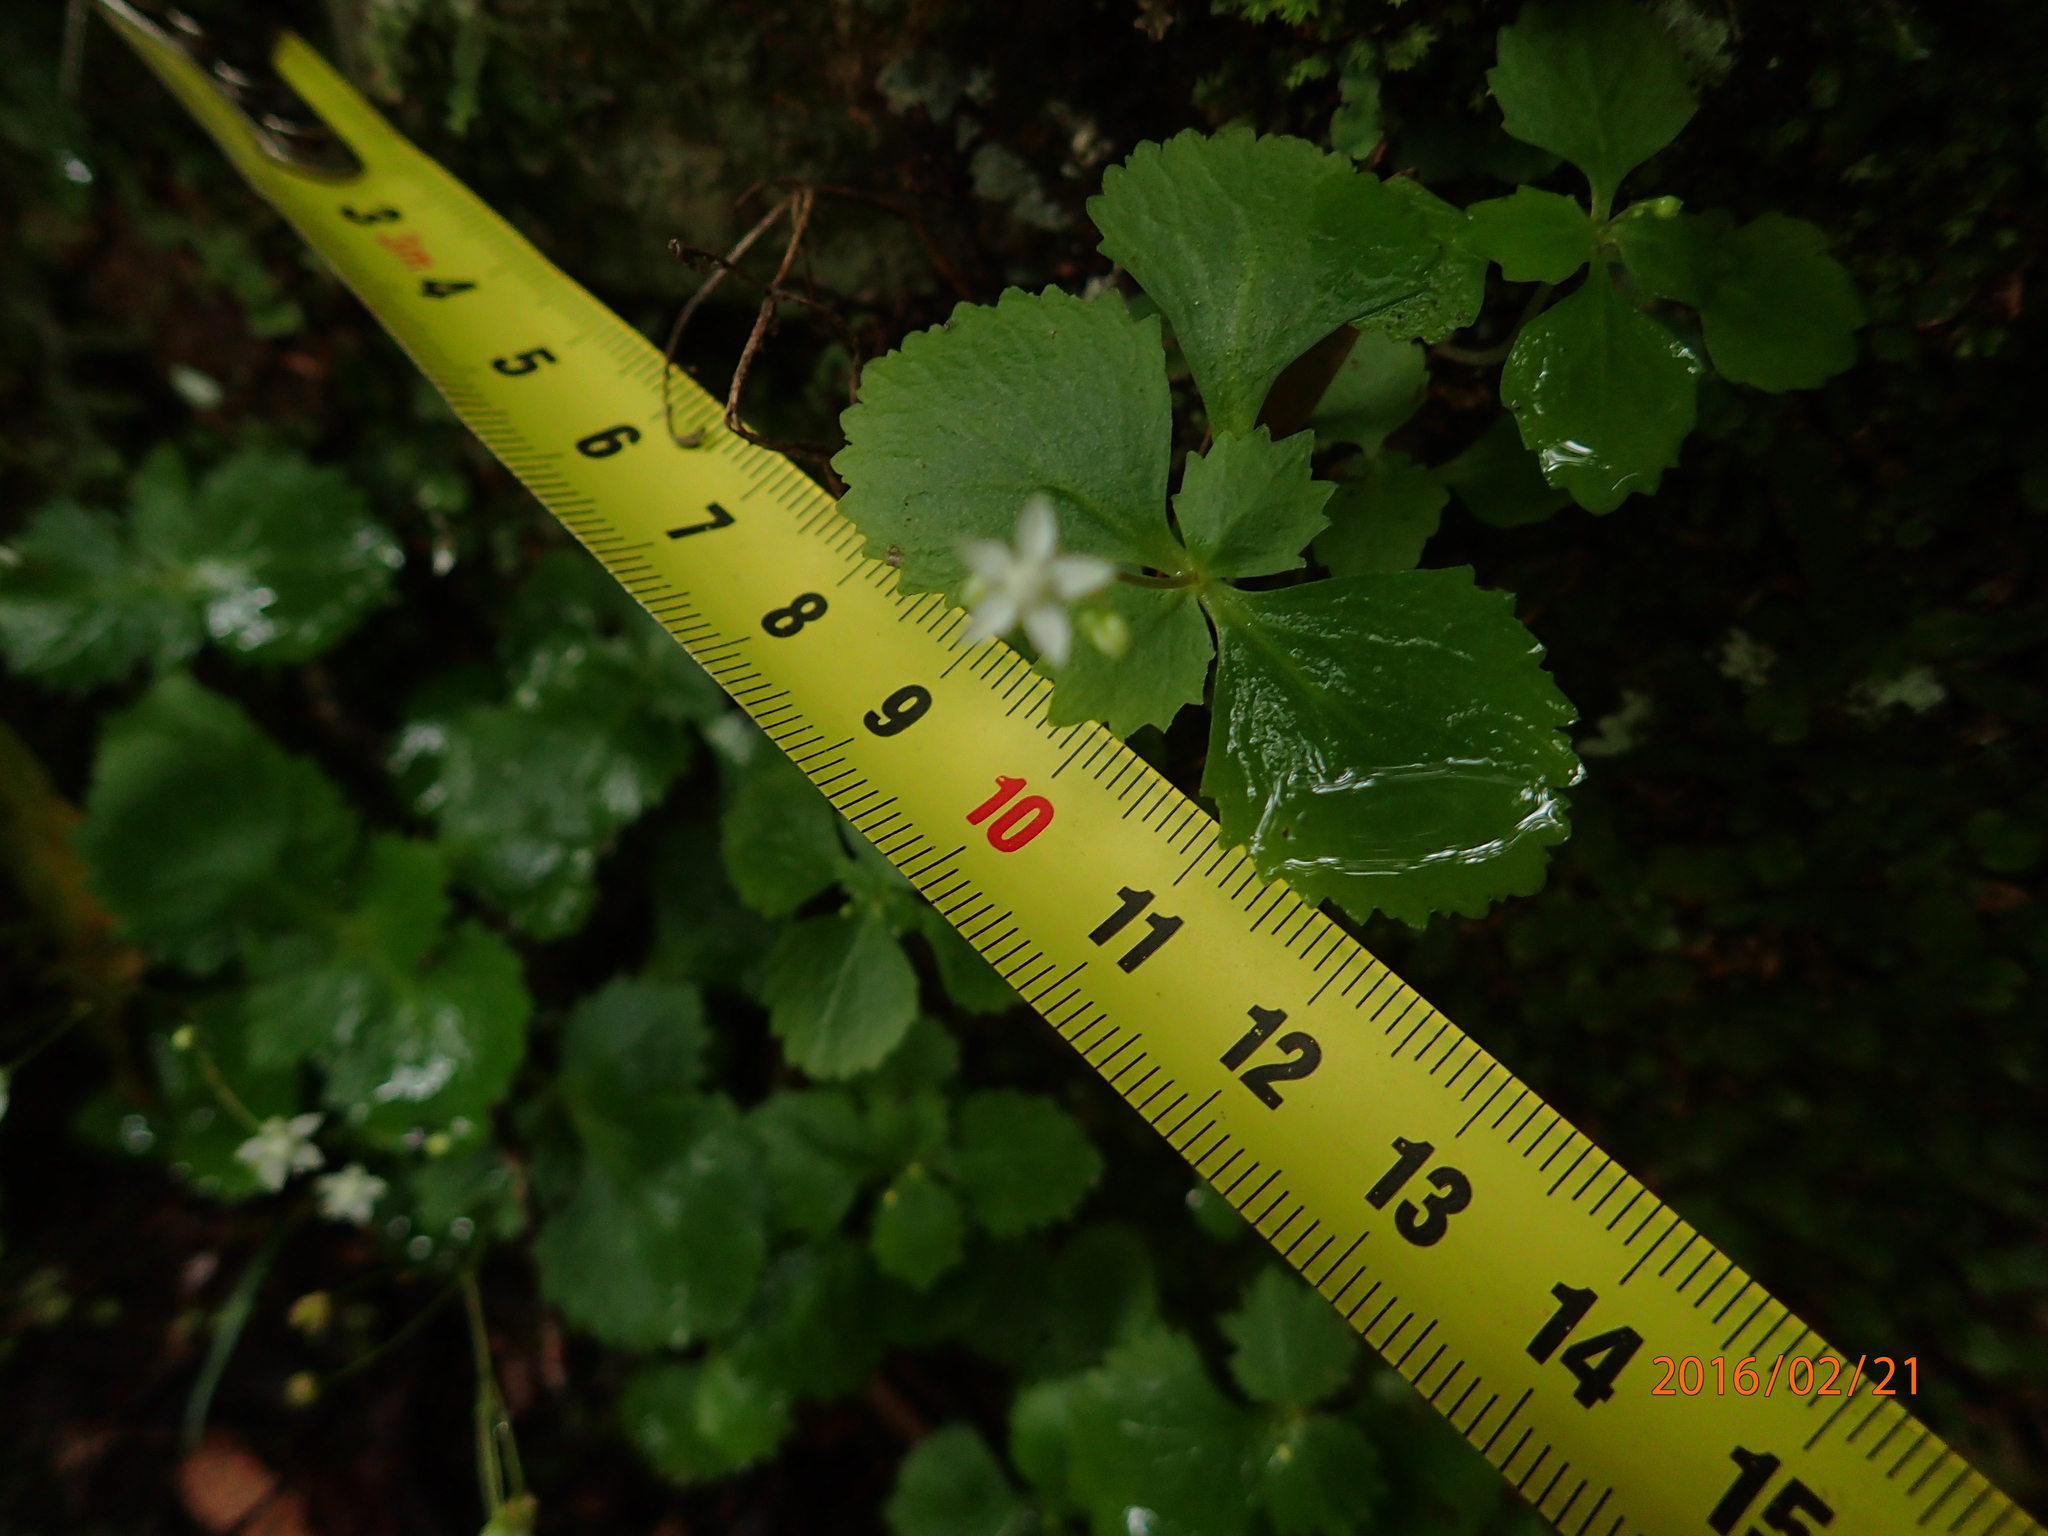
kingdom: Plantae
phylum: Tracheophyta
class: Magnoliopsida
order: Saxifragales
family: Crassulaceae
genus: Crassula
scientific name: Crassula umbraticola
